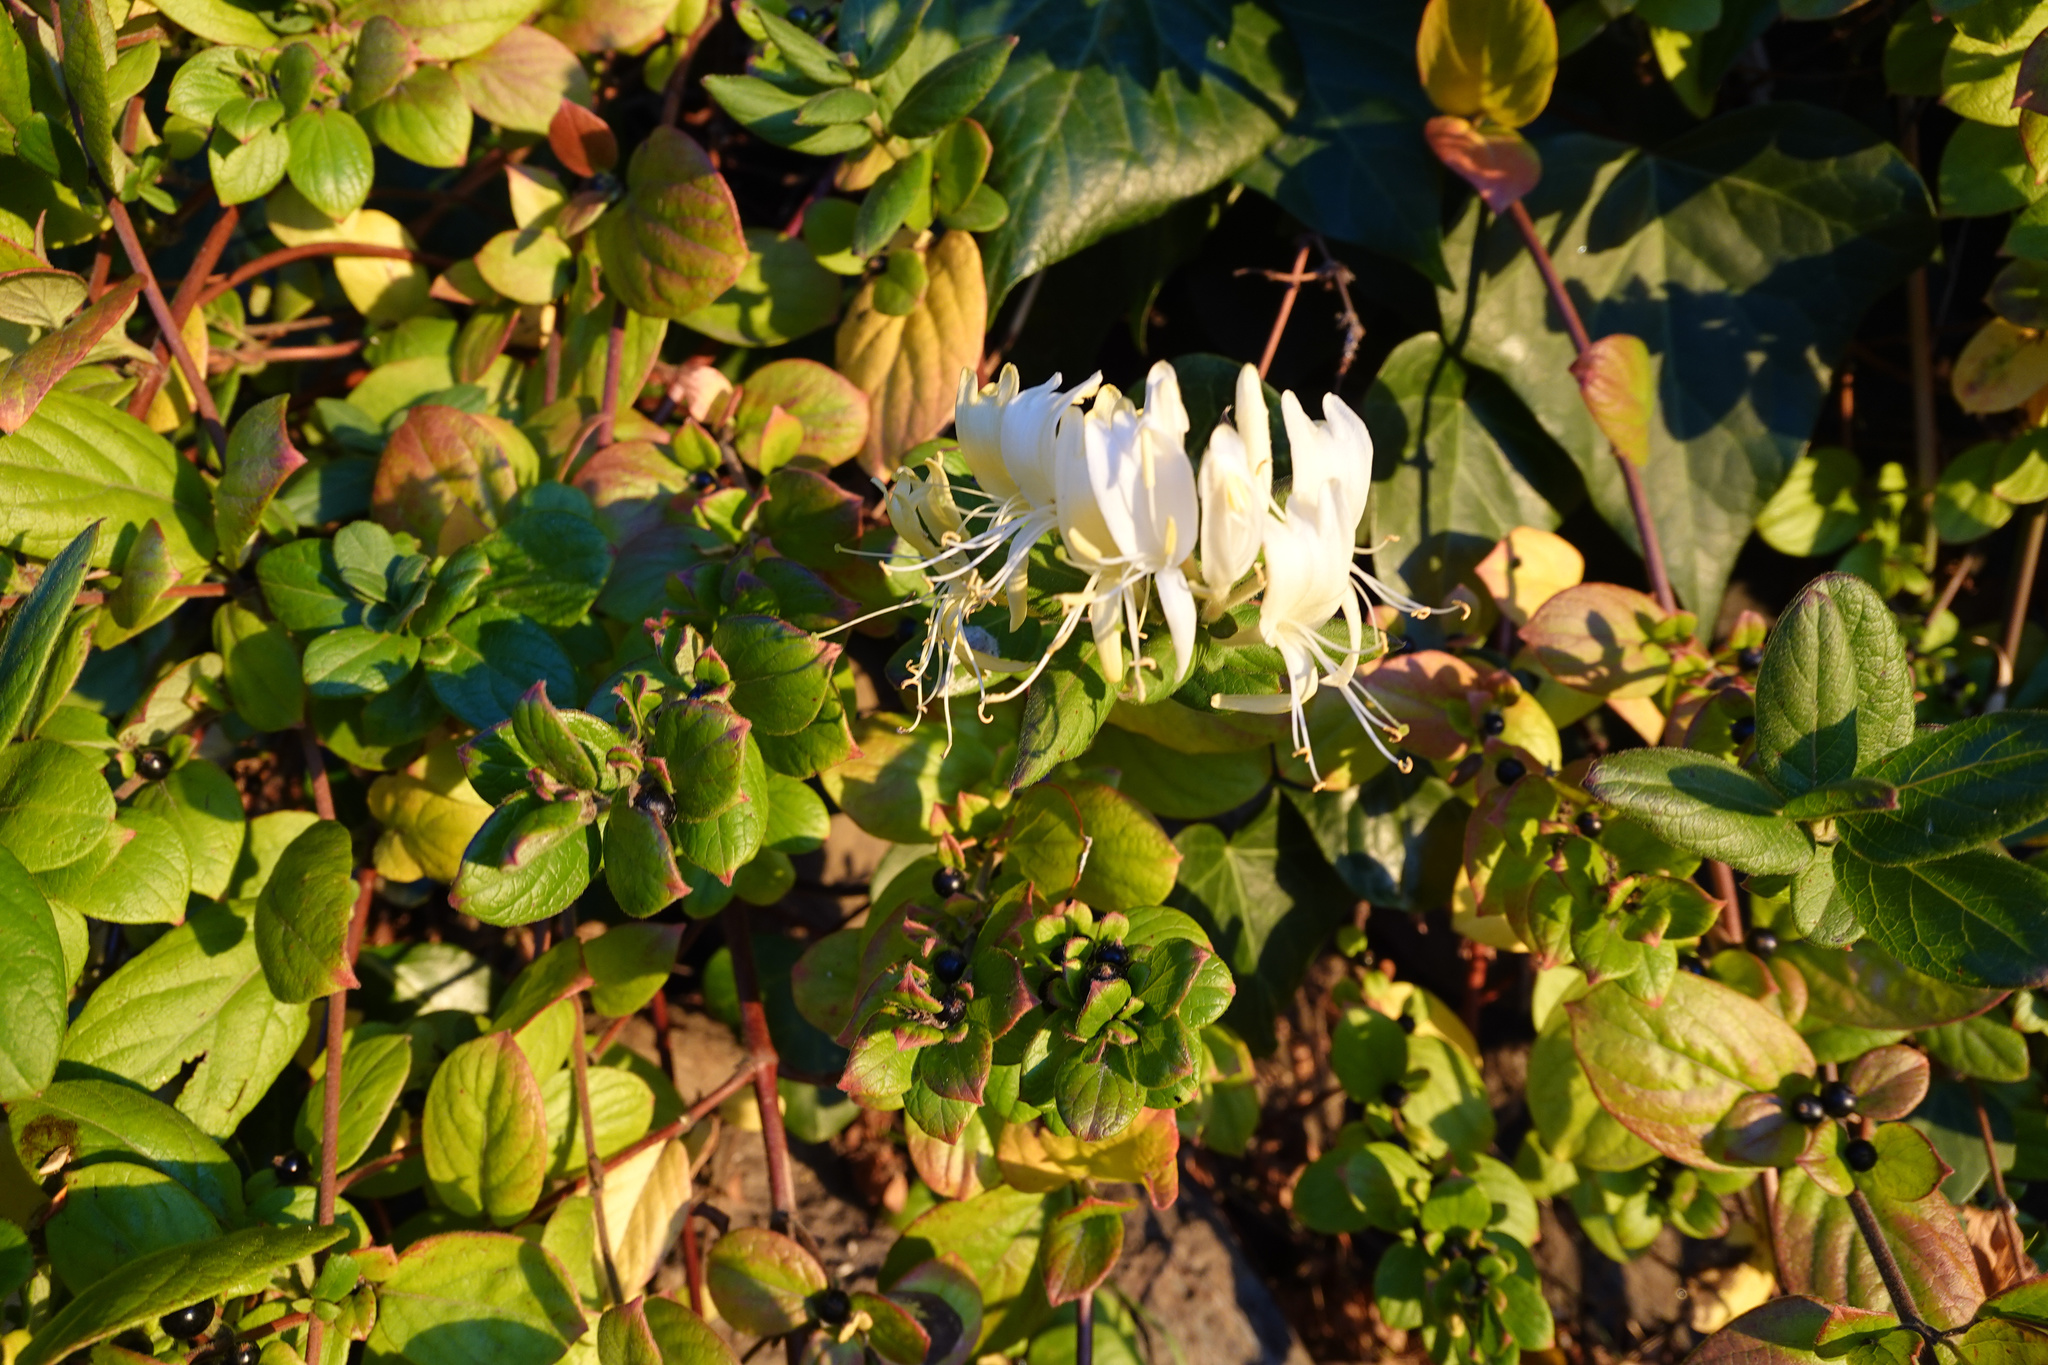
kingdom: Plantae
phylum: Tracheophyta
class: Magnoliopsida
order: Dipsacales
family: Caprifoliaceae
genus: Lonicera
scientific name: Lonicera japonica
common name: Japanese honeysuckle
